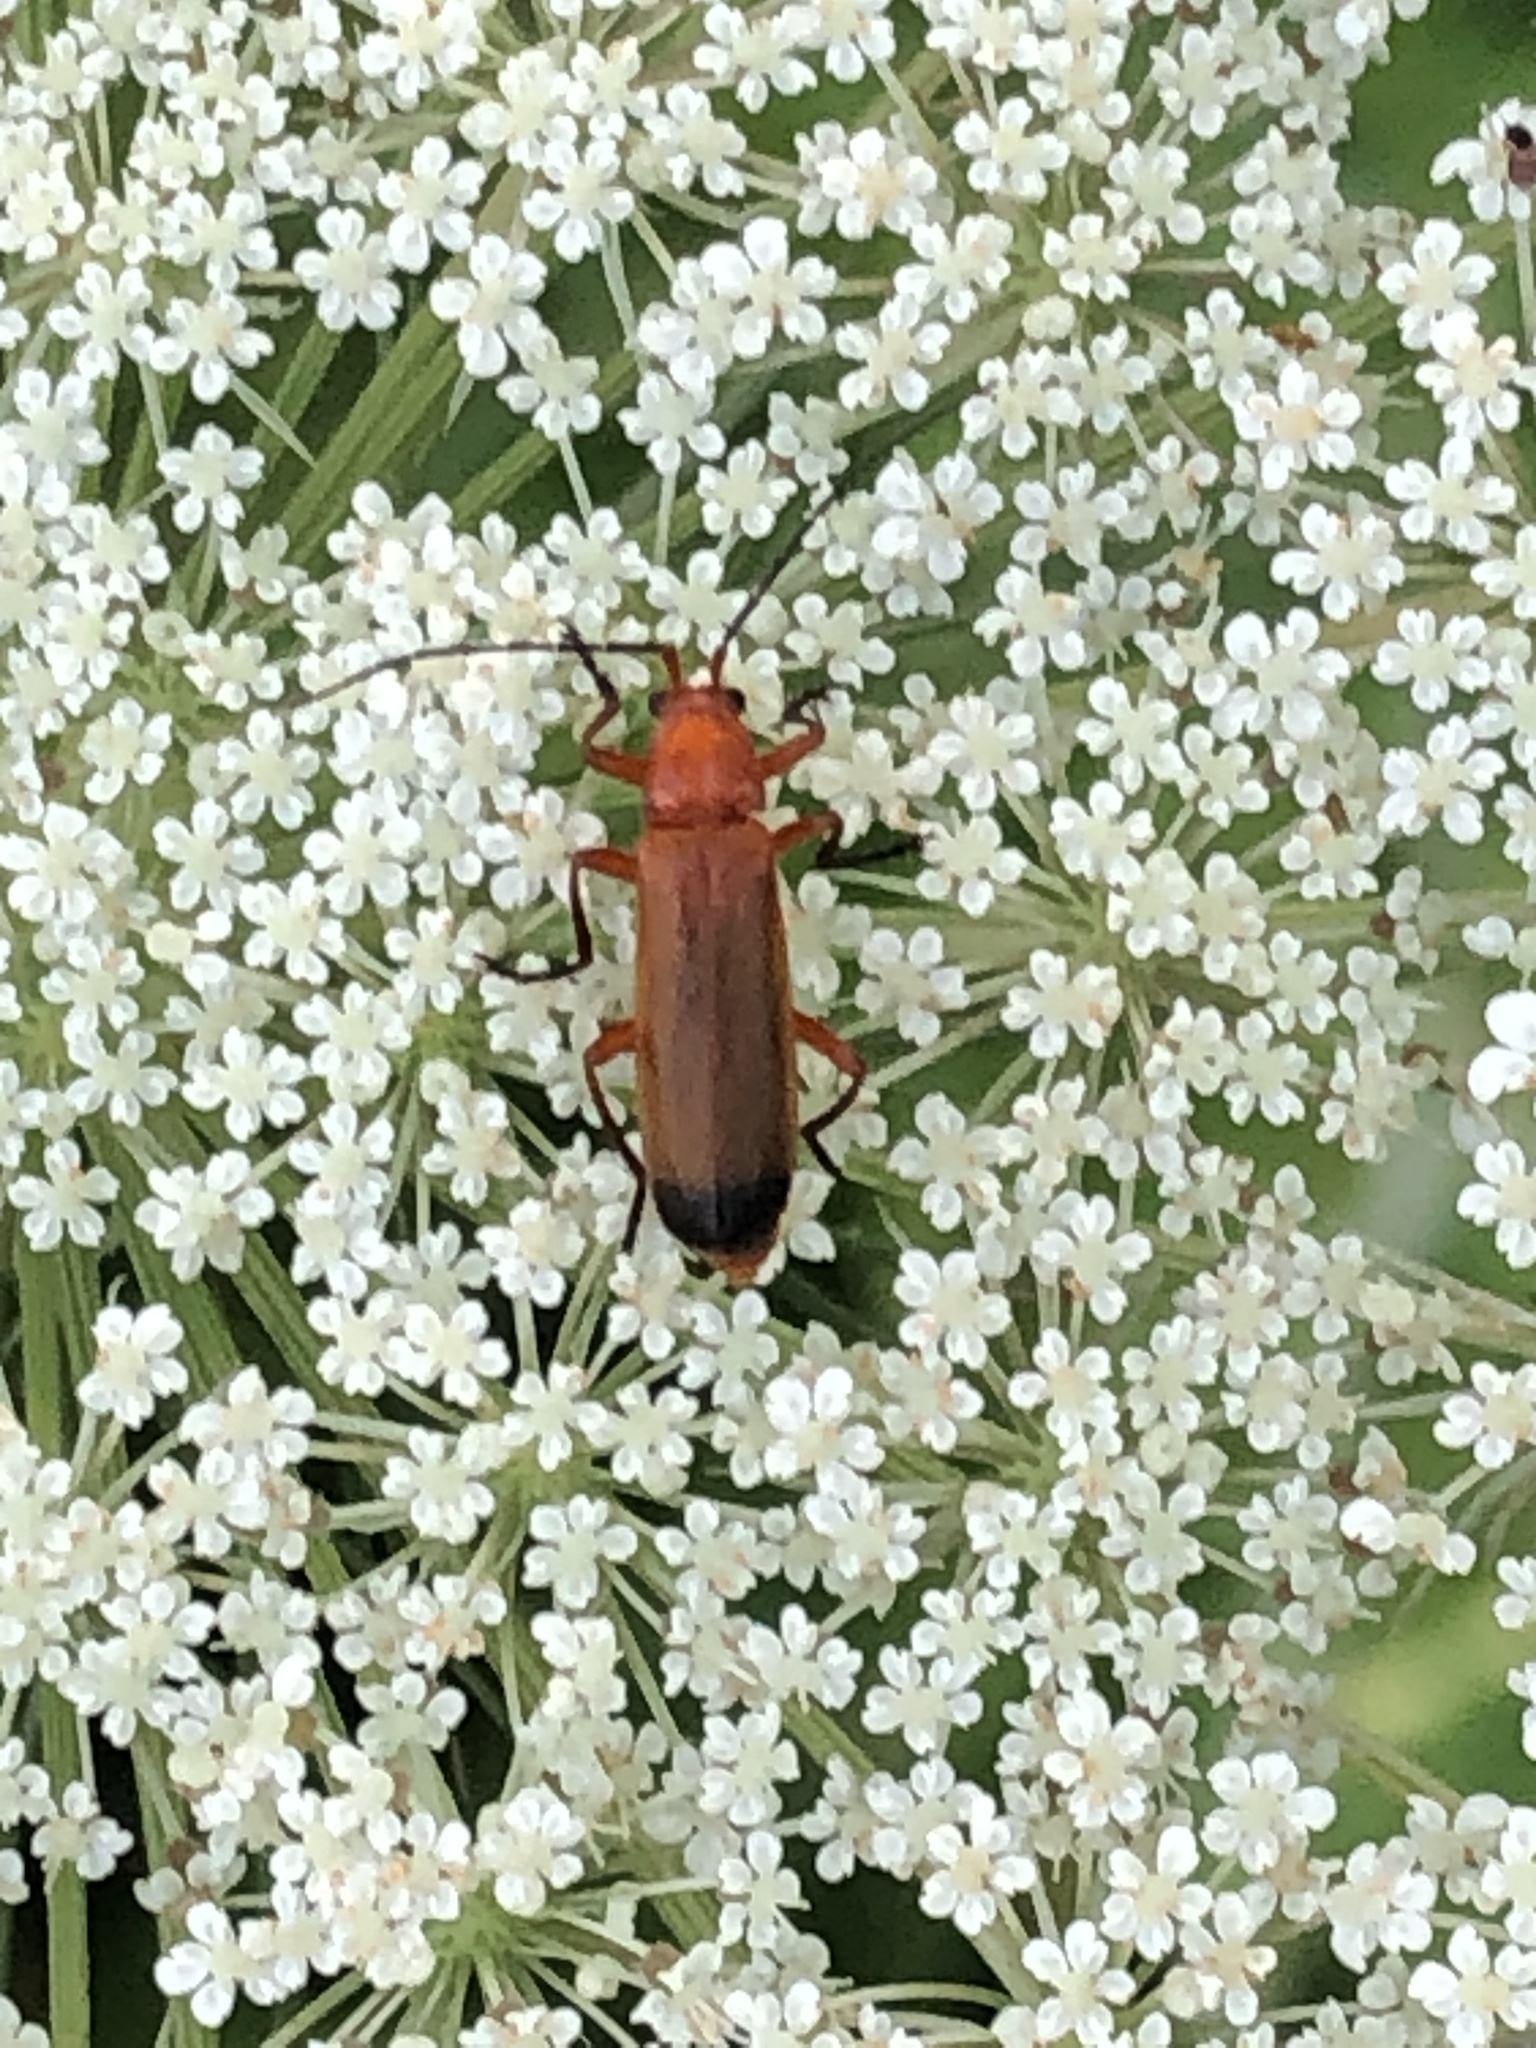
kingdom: Animalia
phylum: Arthropoda
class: Insecta
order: Coleoptera
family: Cantharidae
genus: Rhagonycha
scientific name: Rhagonycha fulva
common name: Common red soldier beetle
